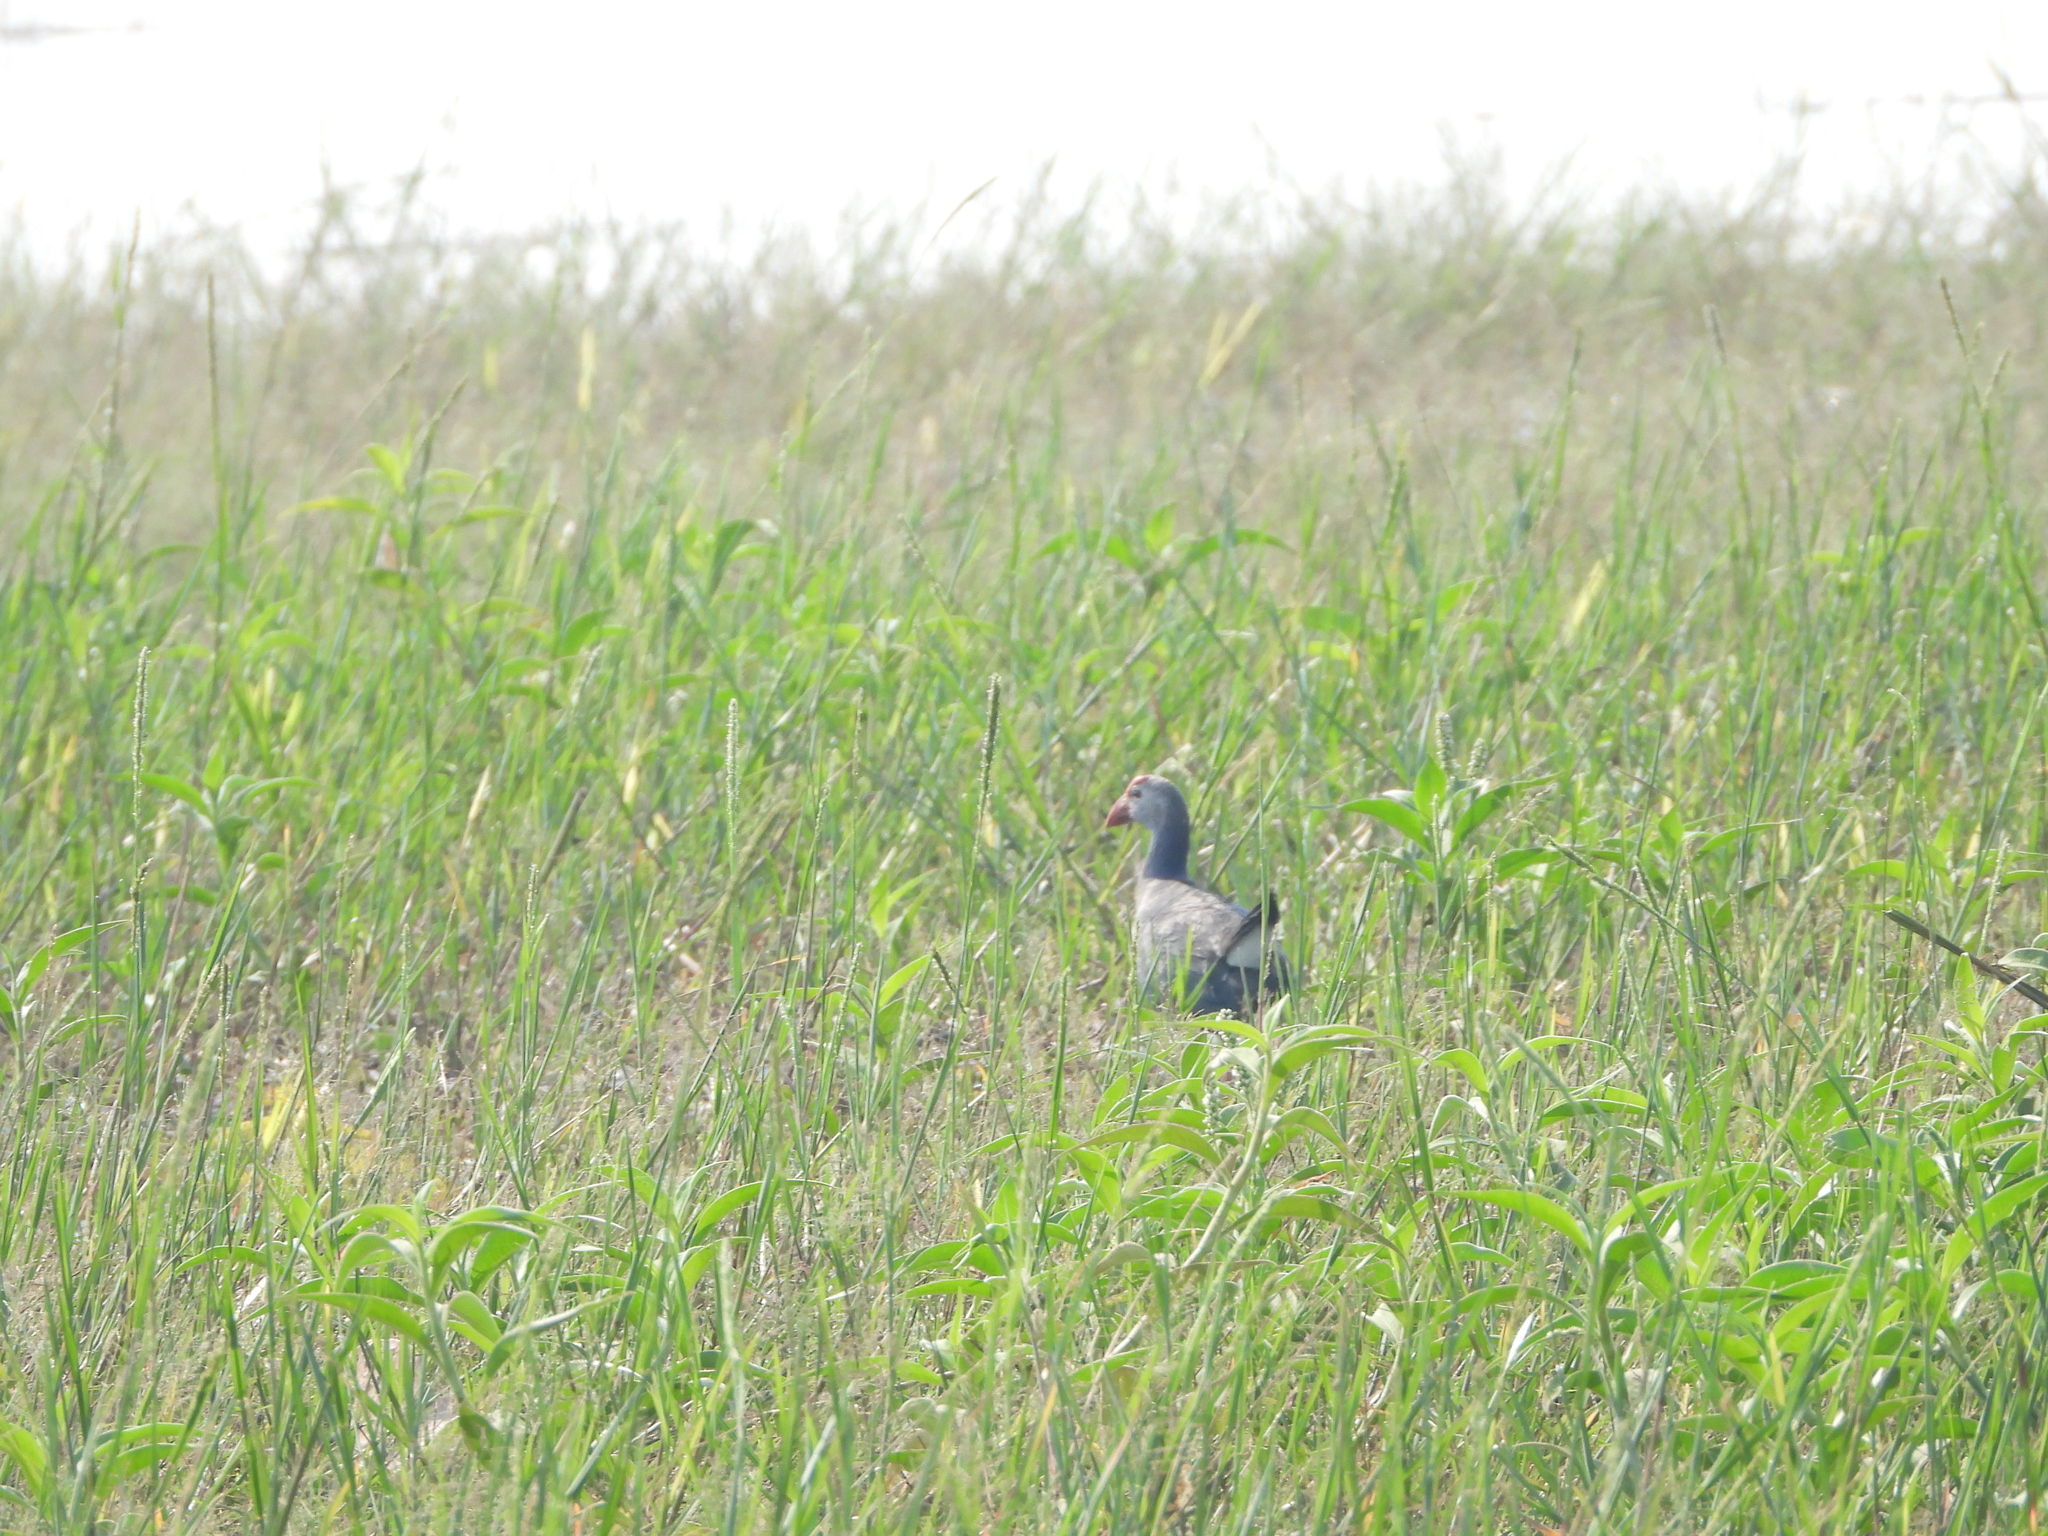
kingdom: Animalia
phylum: Chordata
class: Aves
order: Gruiformes
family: Rallidae
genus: Porphyrio
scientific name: Porphyrio porphyrio
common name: Purple swamphen
